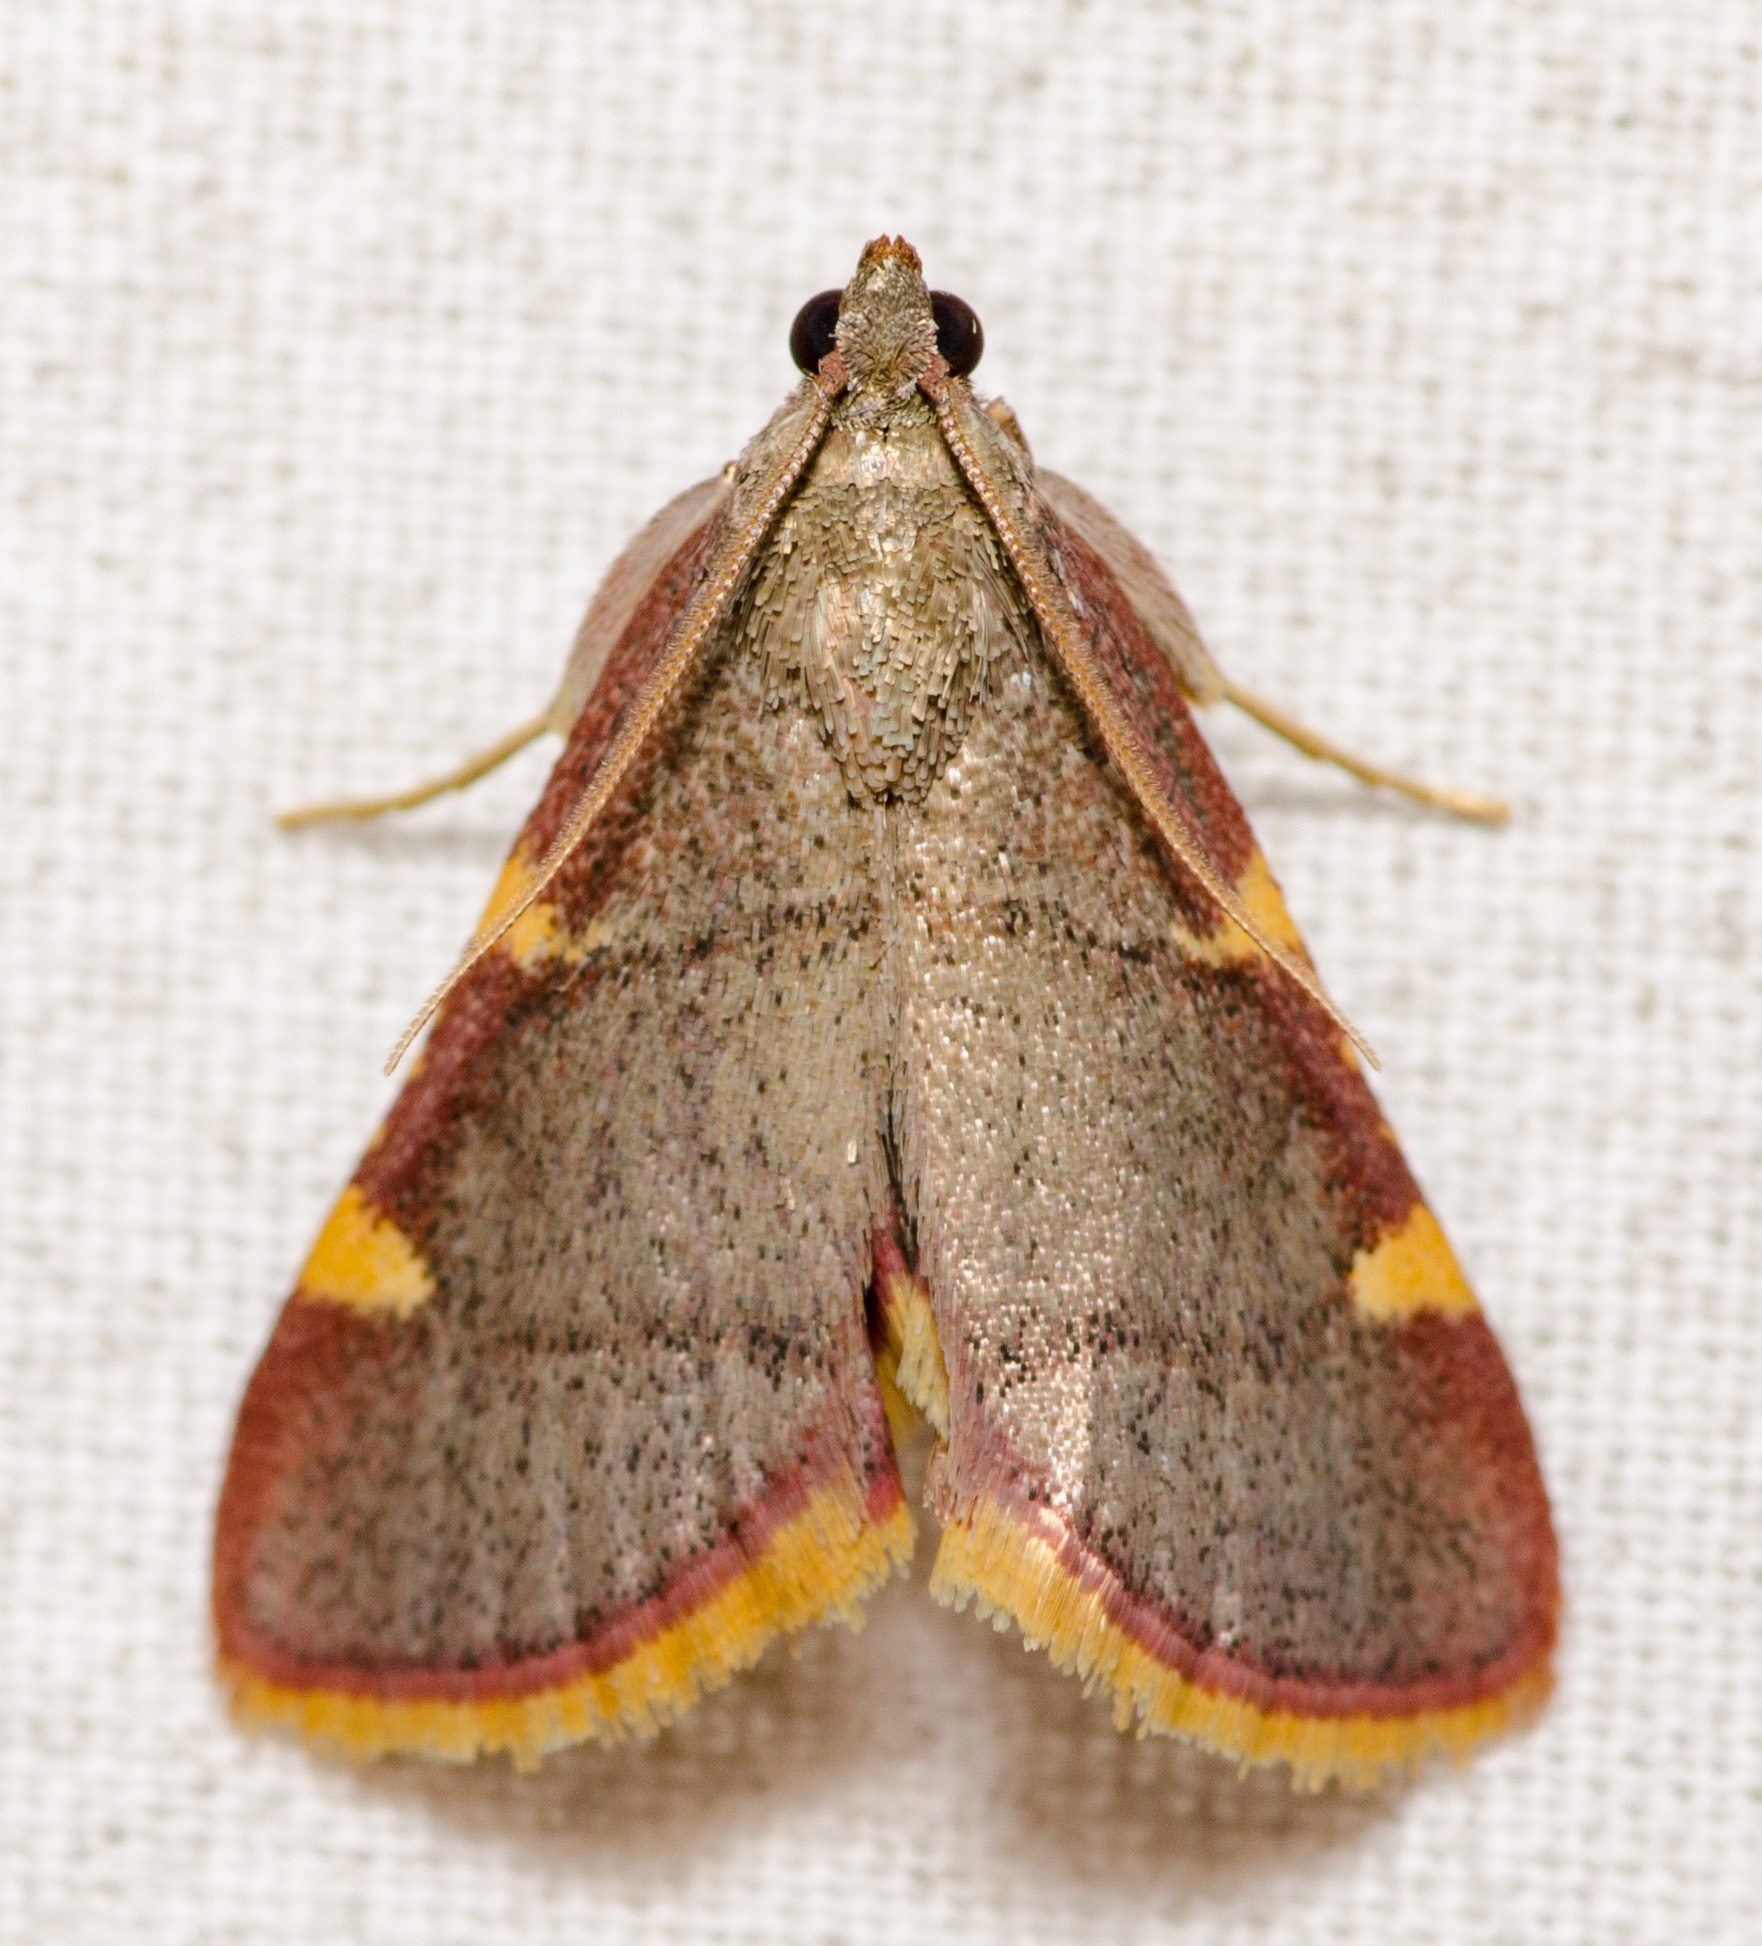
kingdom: Animalia
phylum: Arthropoda
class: Insecta
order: Lepidoptera
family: Pyralidae
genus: Hypsopygia
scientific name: Hypsopygia olinalis
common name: Yellow-fringed dolichomia moth
